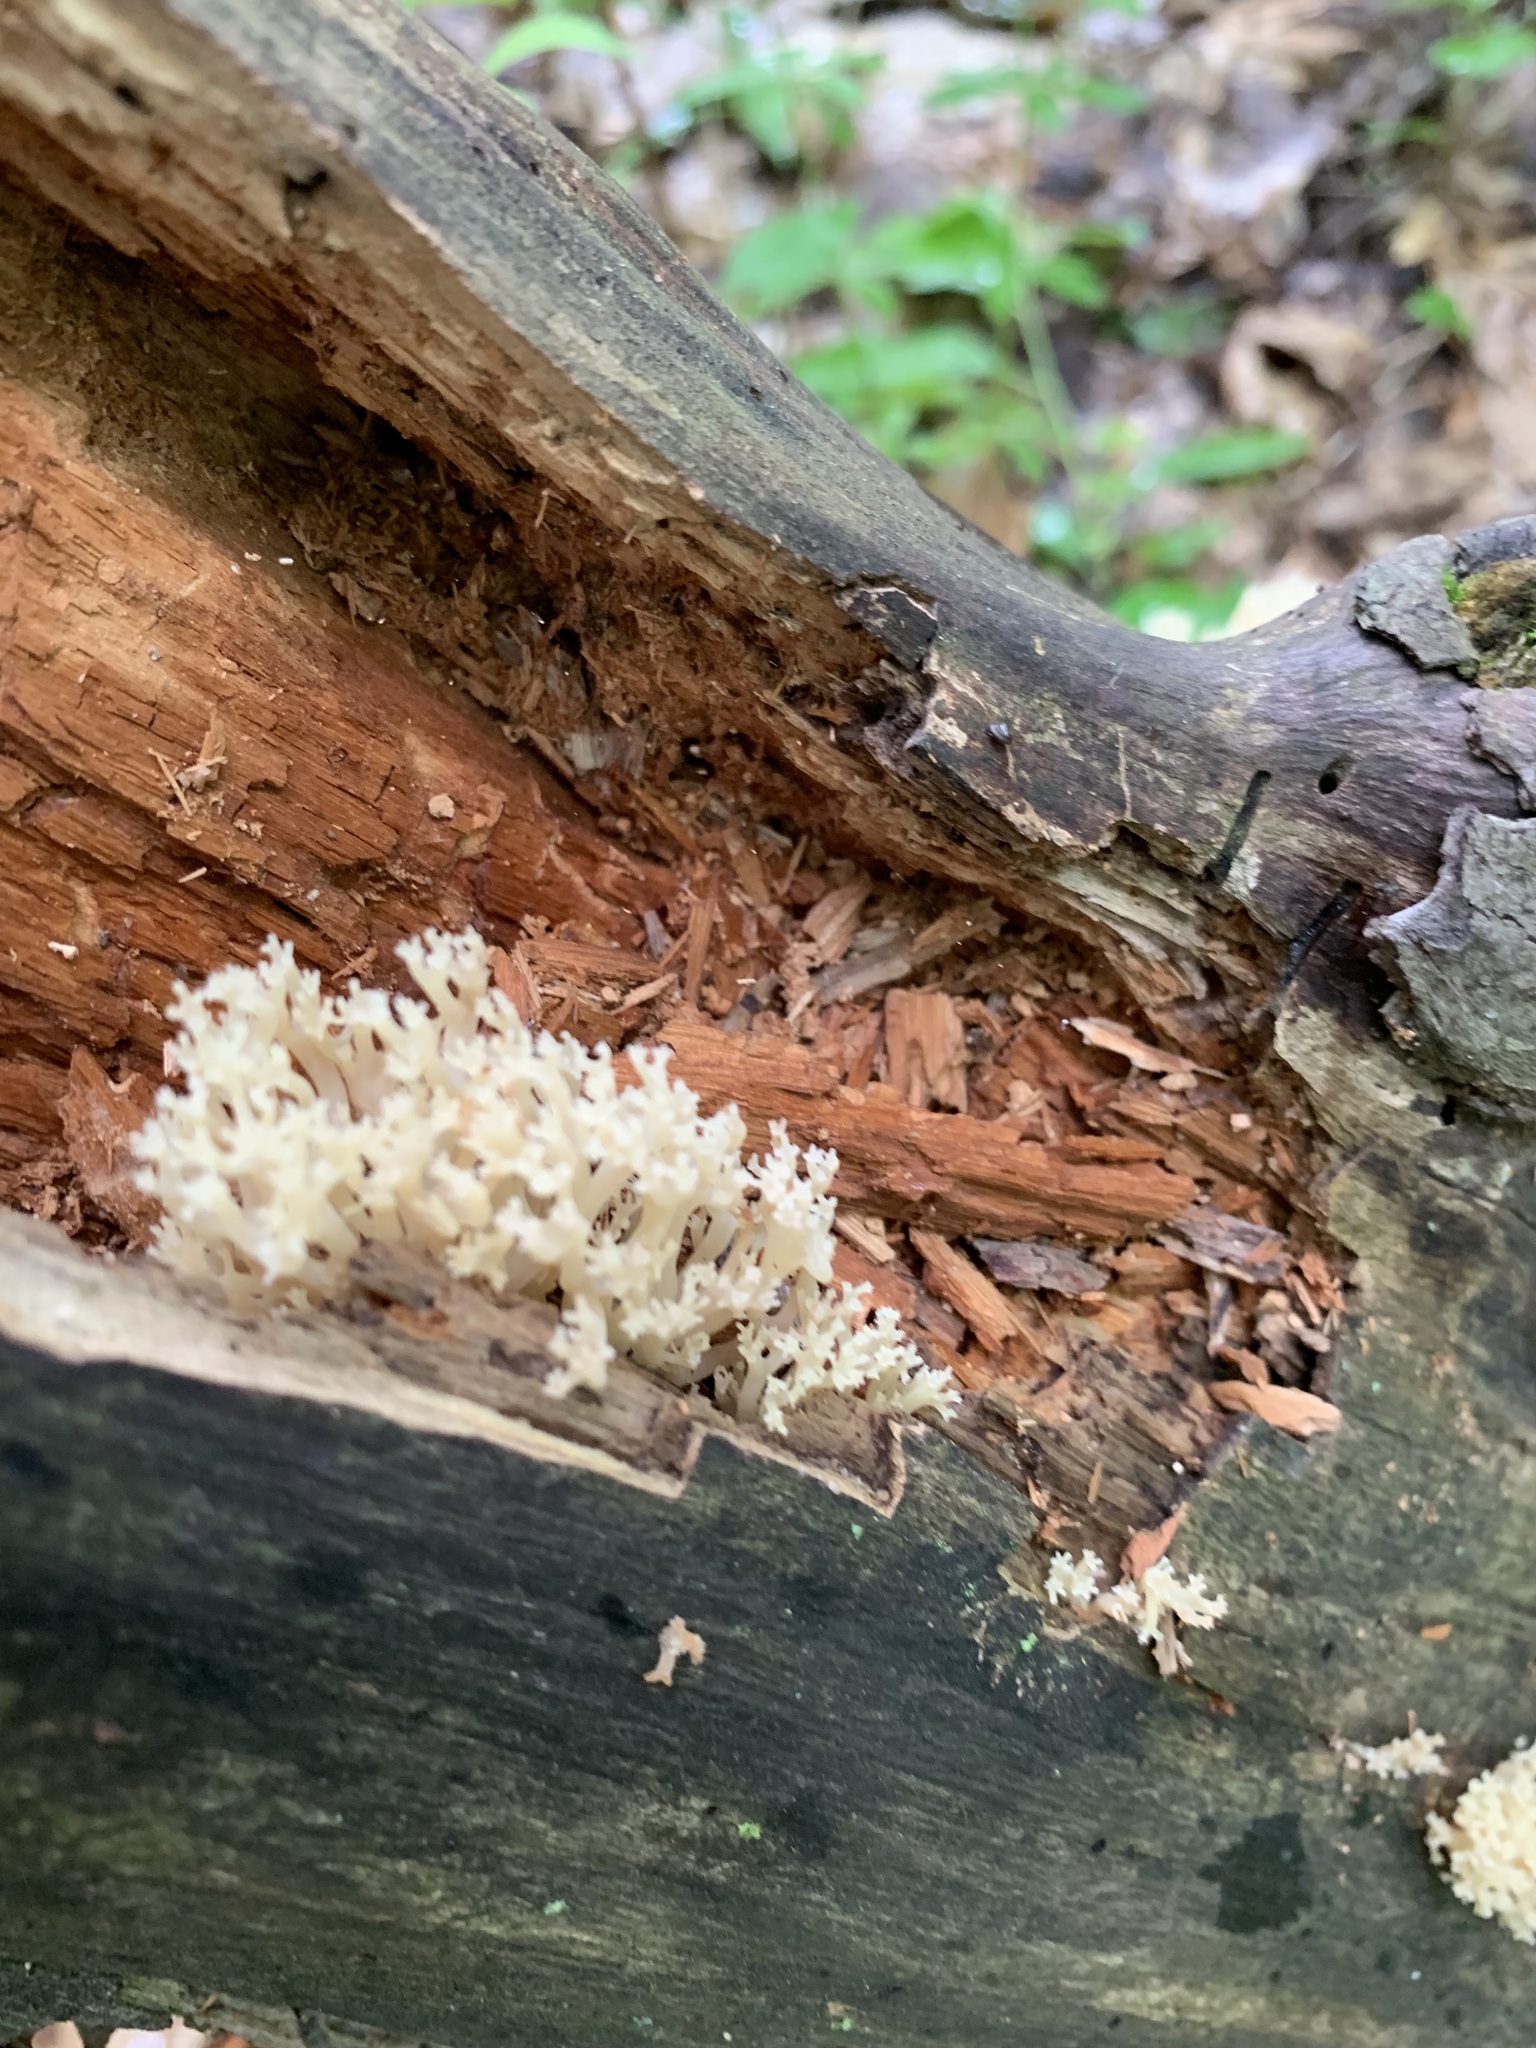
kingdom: Fungi
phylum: Basidiomycota
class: Agaricomycetes
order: Russulales
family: Auriscalpiaceae
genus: Artomyces
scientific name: Artomyces pyxidatus
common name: Crown-tipped coral fungus
